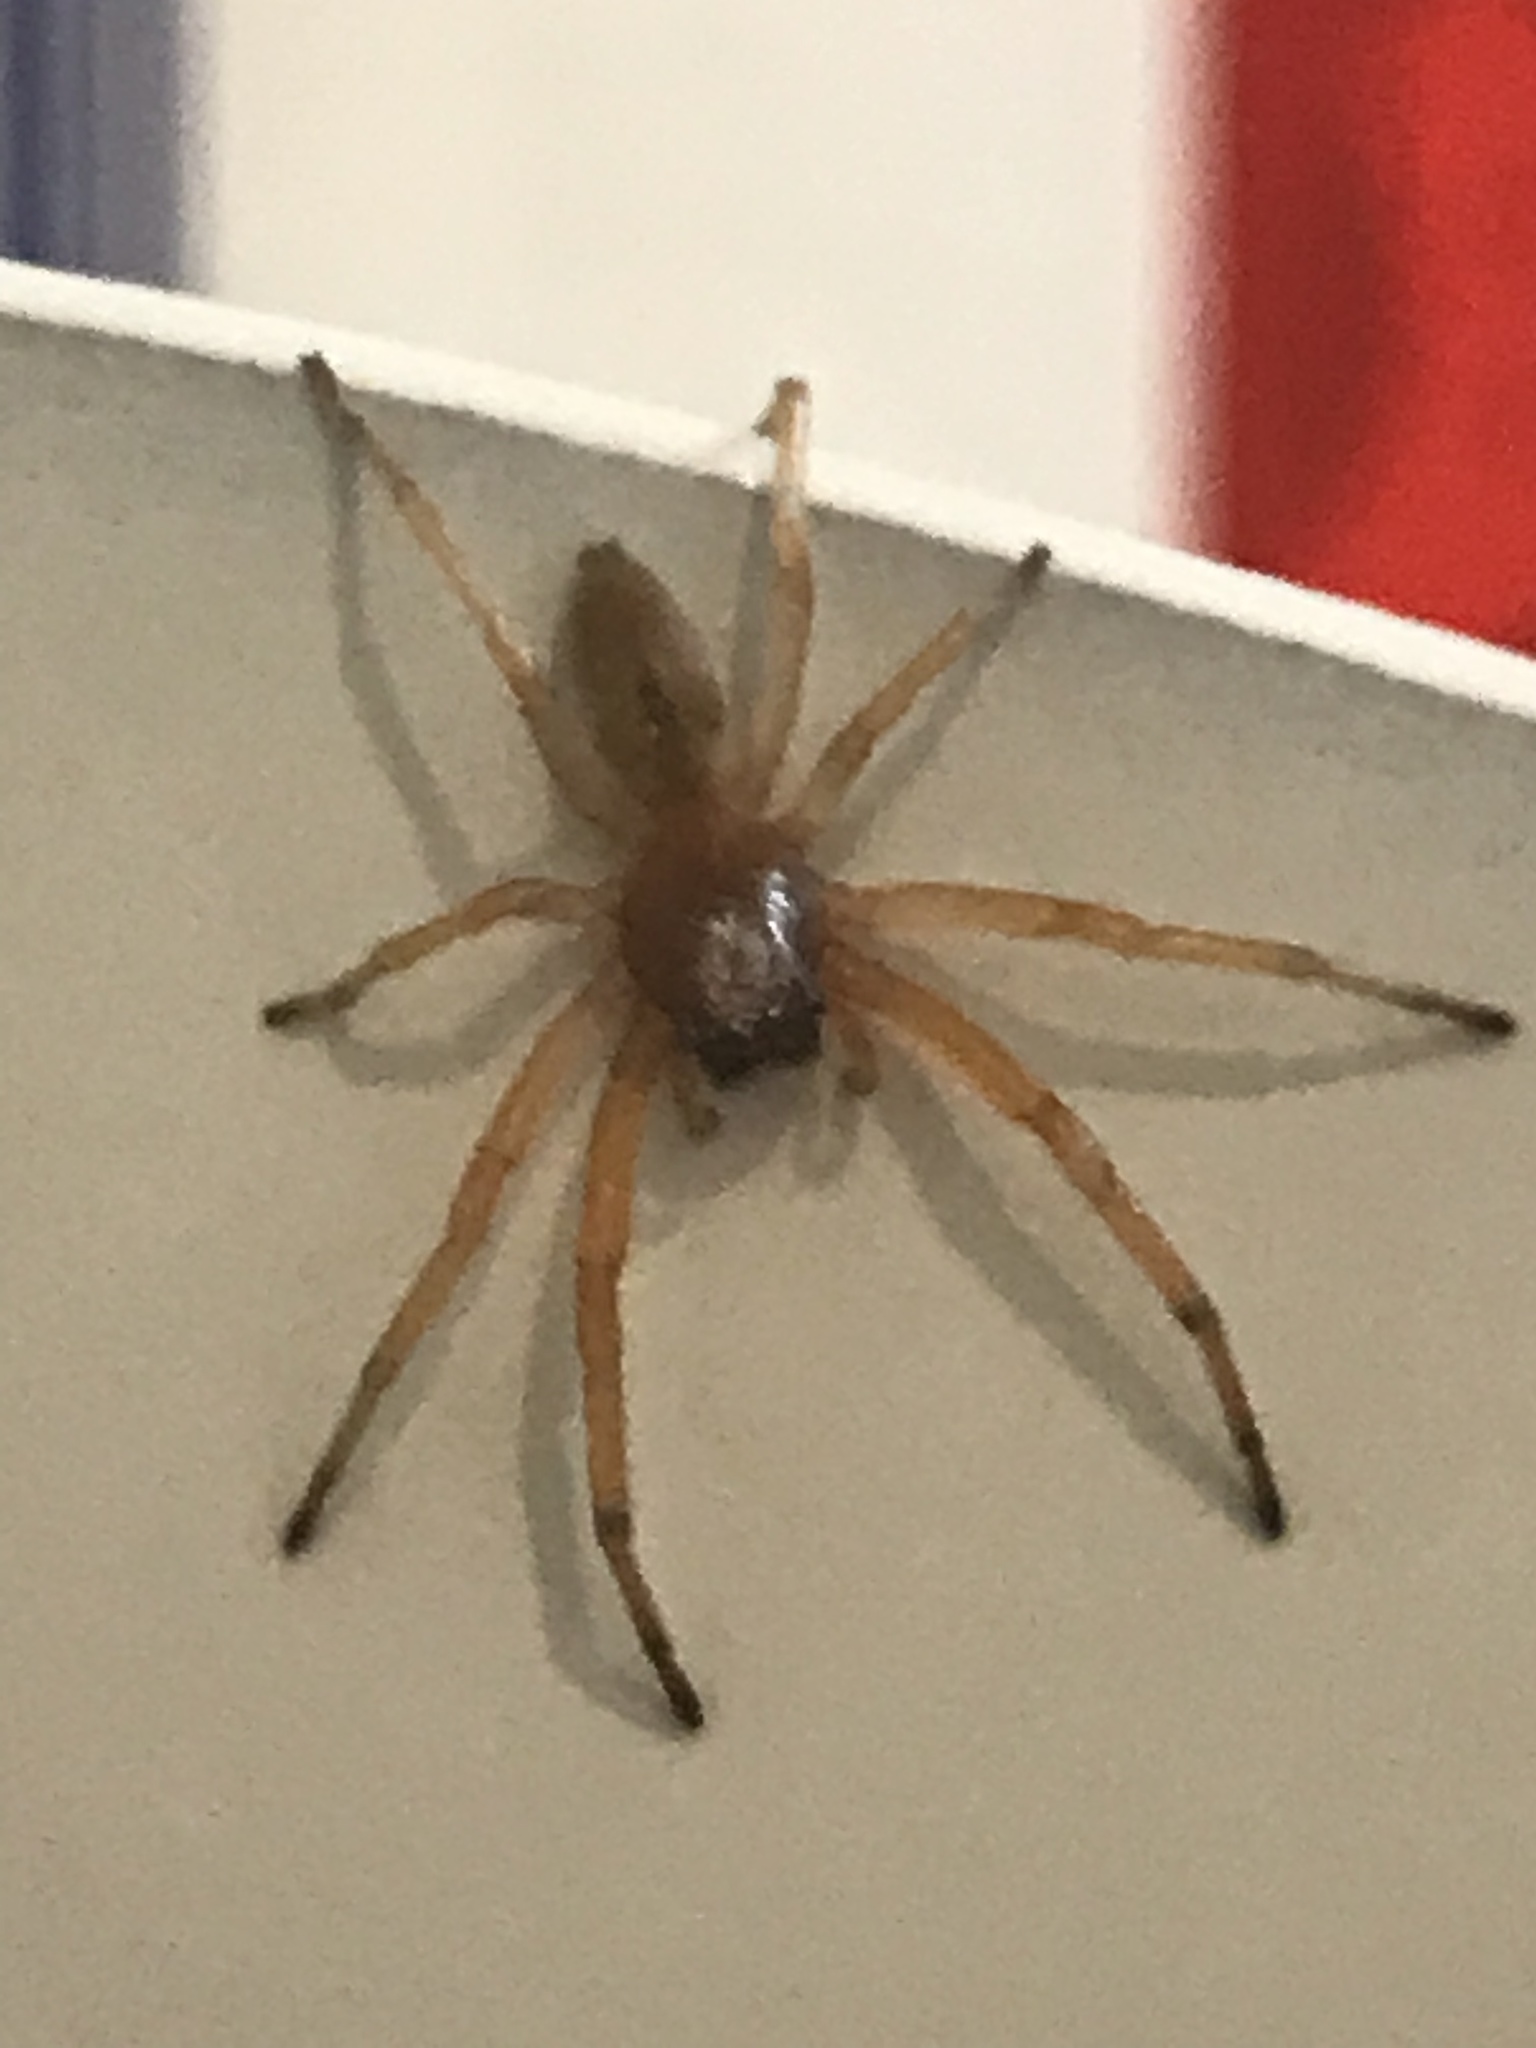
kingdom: Animalia
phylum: Arthropoda
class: Arachnida
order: Araneae
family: Trachelidae
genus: Trachelas
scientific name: Trachelas tranquillus
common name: Broad-faced sac spider
